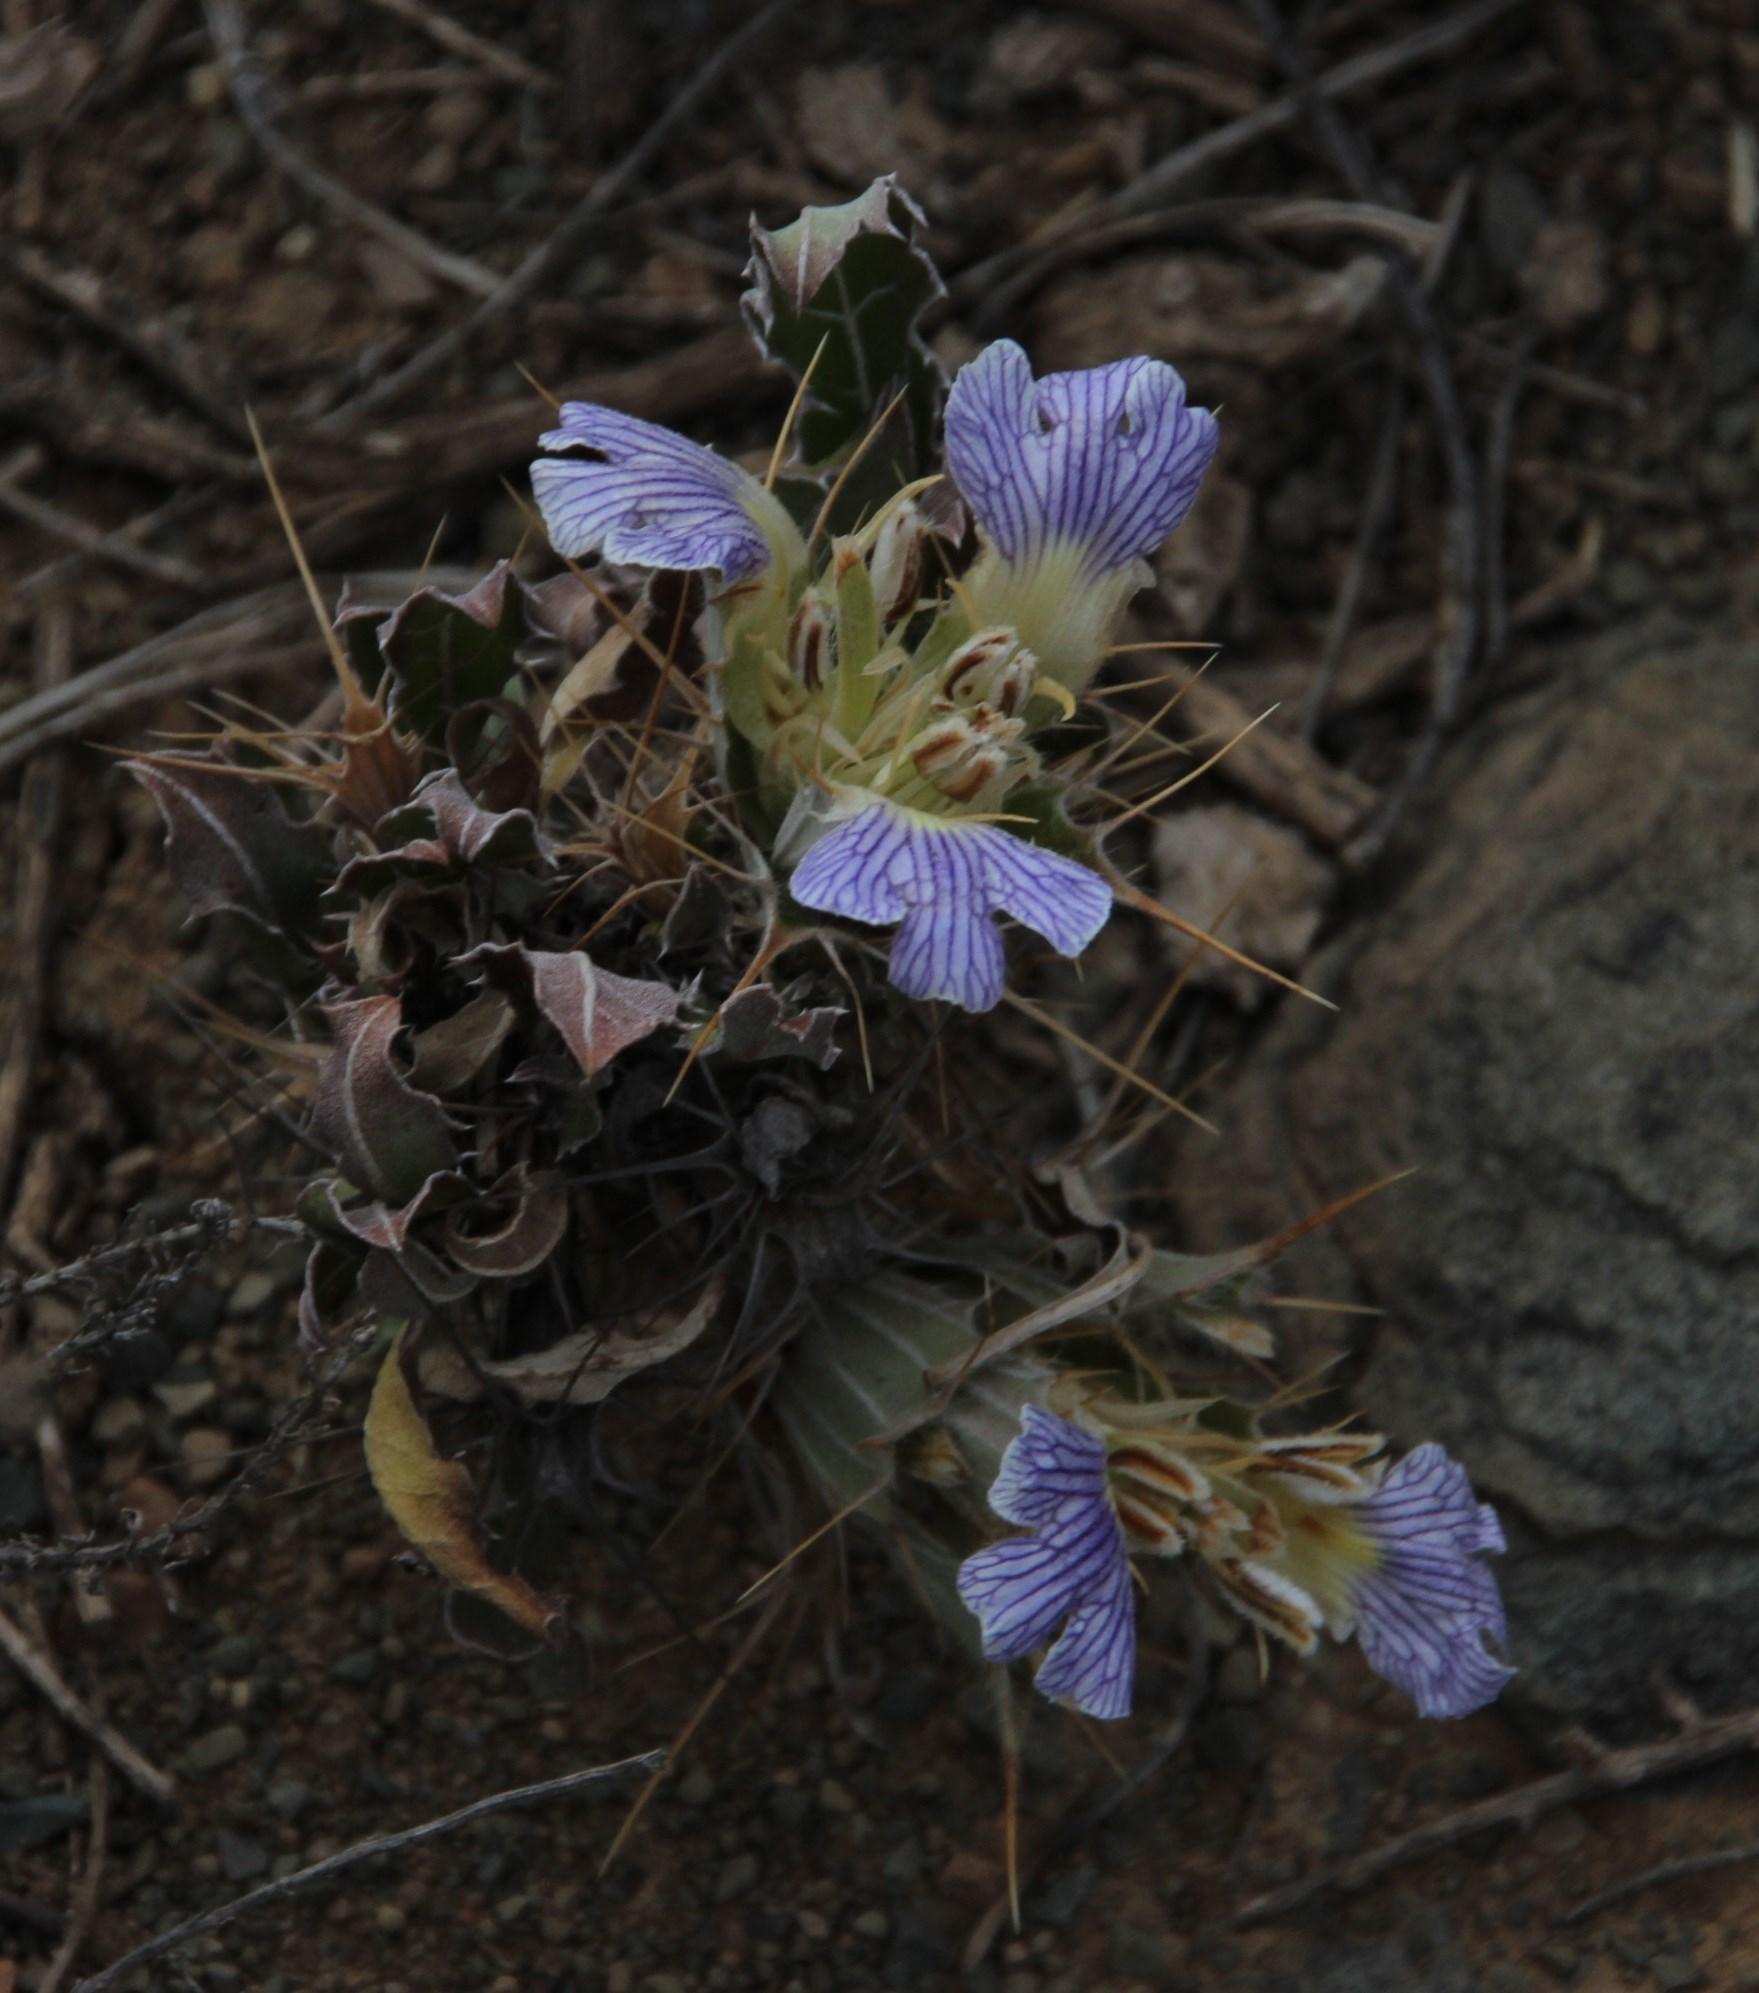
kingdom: Plantae
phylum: Tracheophyta
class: Magnoliopsida
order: Lamiales
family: Acanthaceae
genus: Blepharis
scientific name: Blepharis mitrata
